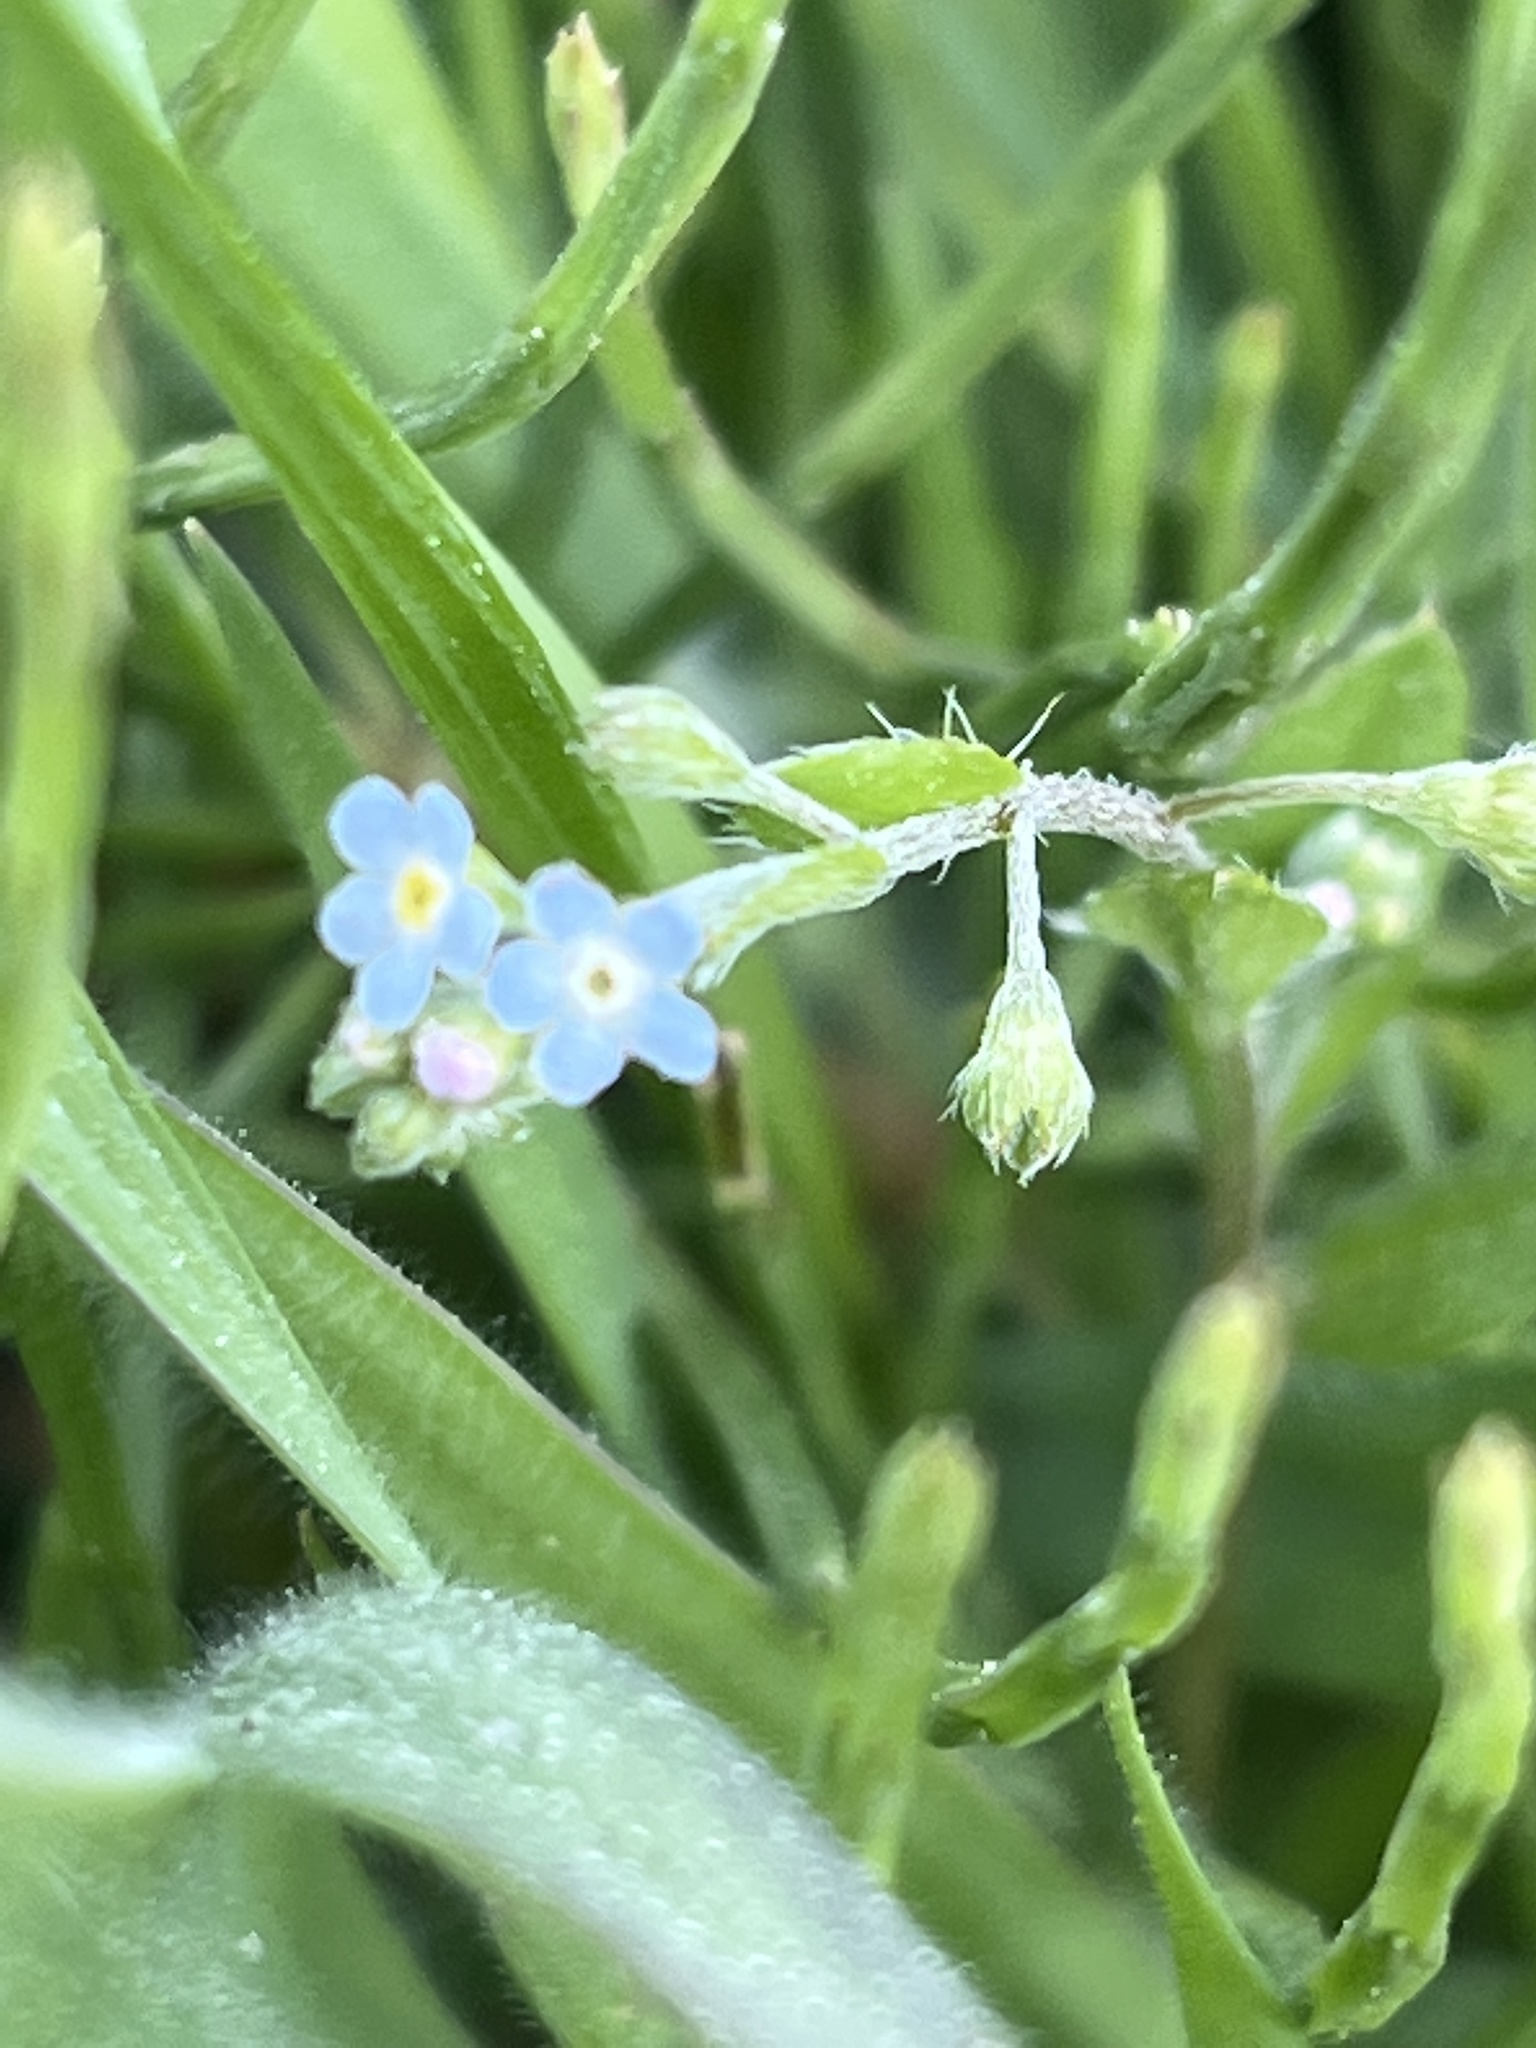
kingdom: Plantae
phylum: Tracheophyta
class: Magnoliopsida
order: Boraginales
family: Boraginaceae
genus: Trigonotis
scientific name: Trigonotis peduncularis
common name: Cucumber herb
